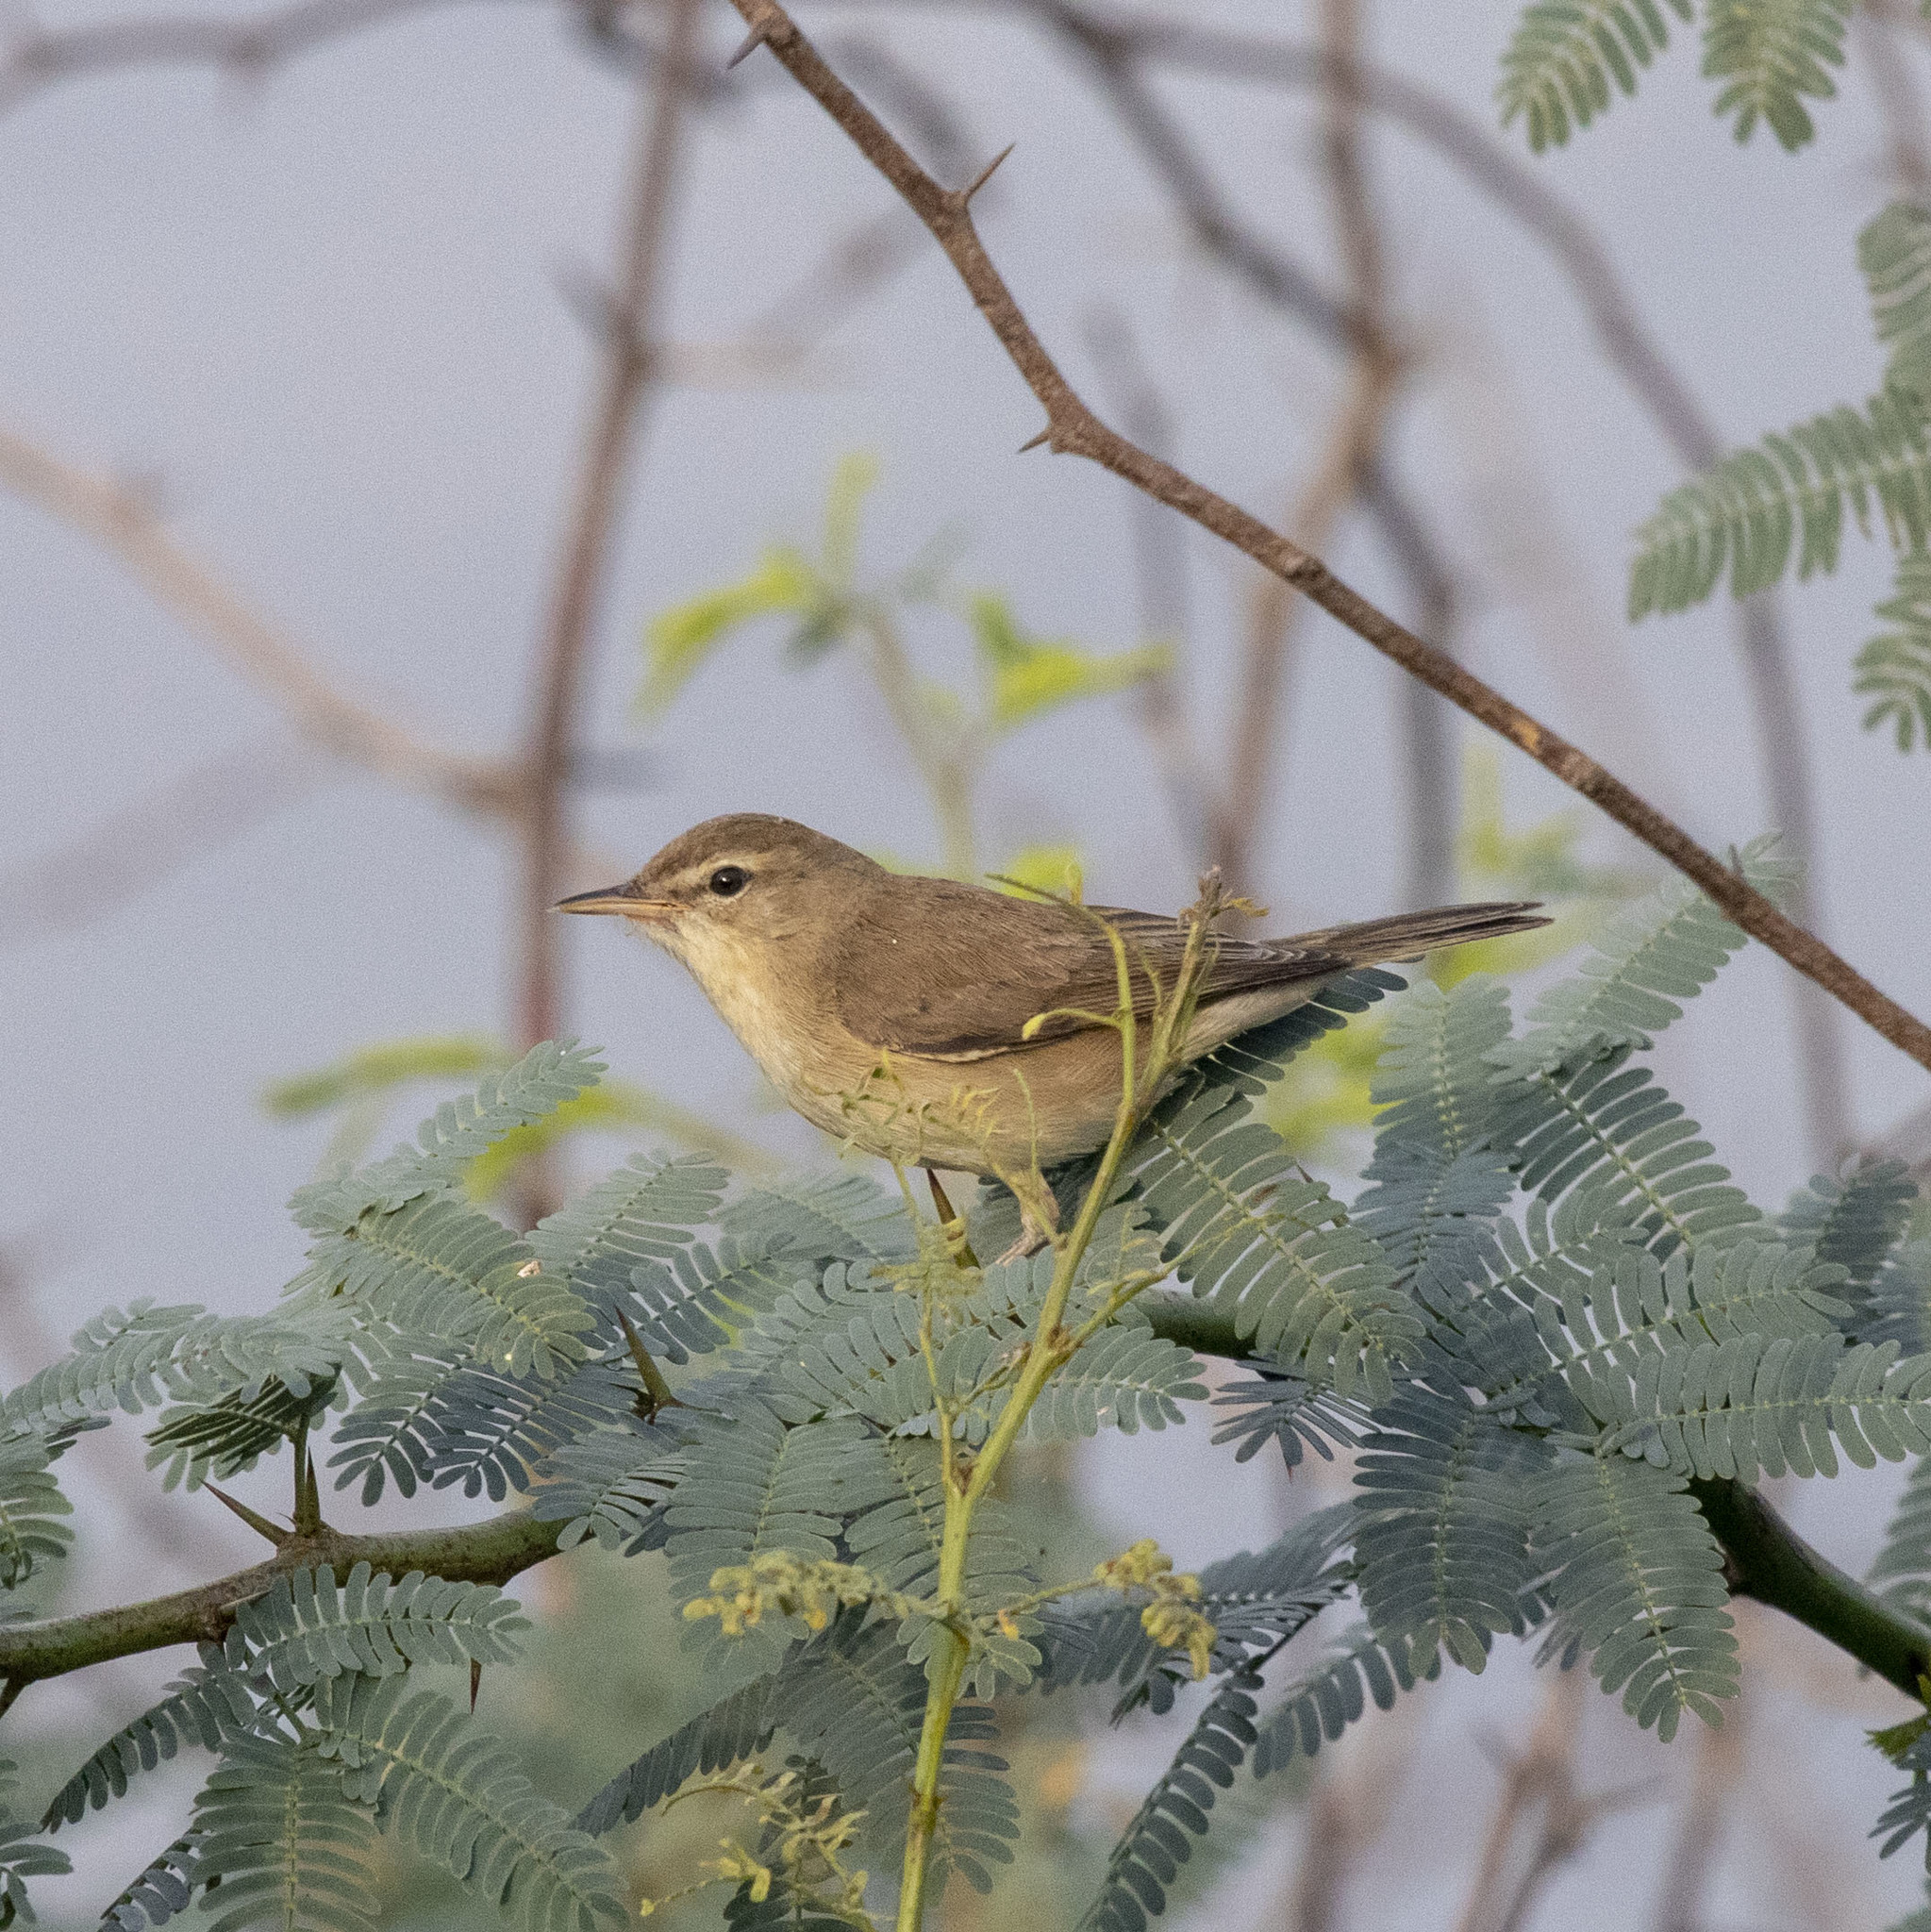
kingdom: Animalia
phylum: Chordata
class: Aves
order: Passeriformes
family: Acrocephalidae
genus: Iduna
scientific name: Iduna caligata
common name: Booted warbler
